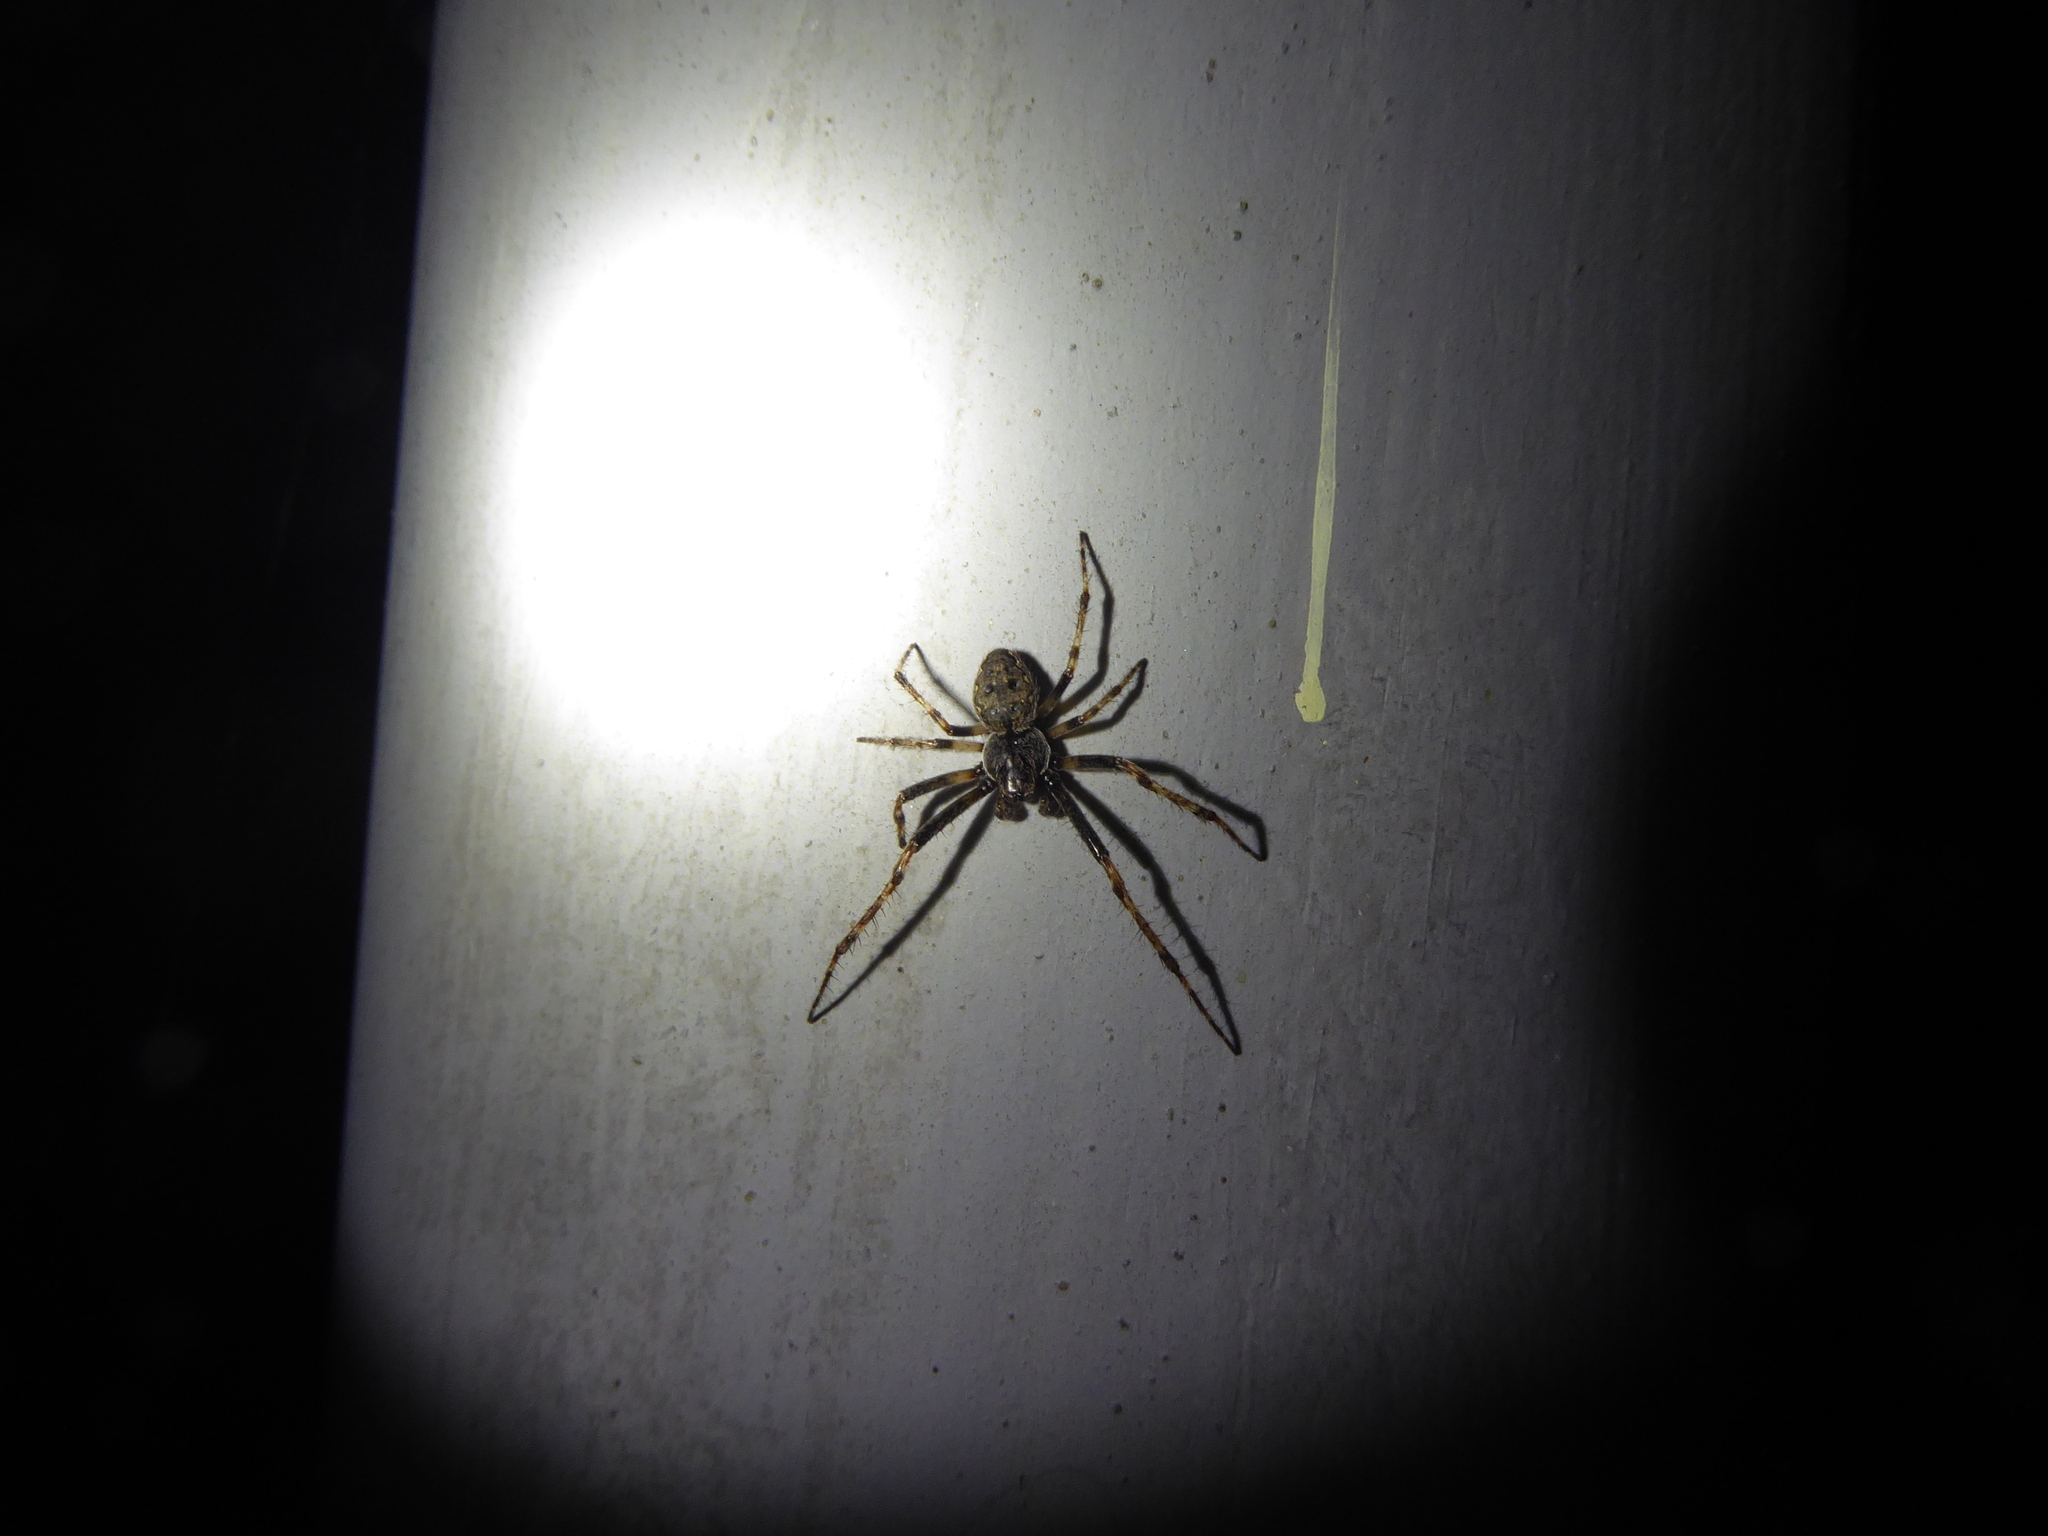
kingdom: Animalia
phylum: Arthropoda
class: Arachnida
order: Araneae
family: Araneidae
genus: Nuctenea
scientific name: Nuctenea umbratica
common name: Toad spider
